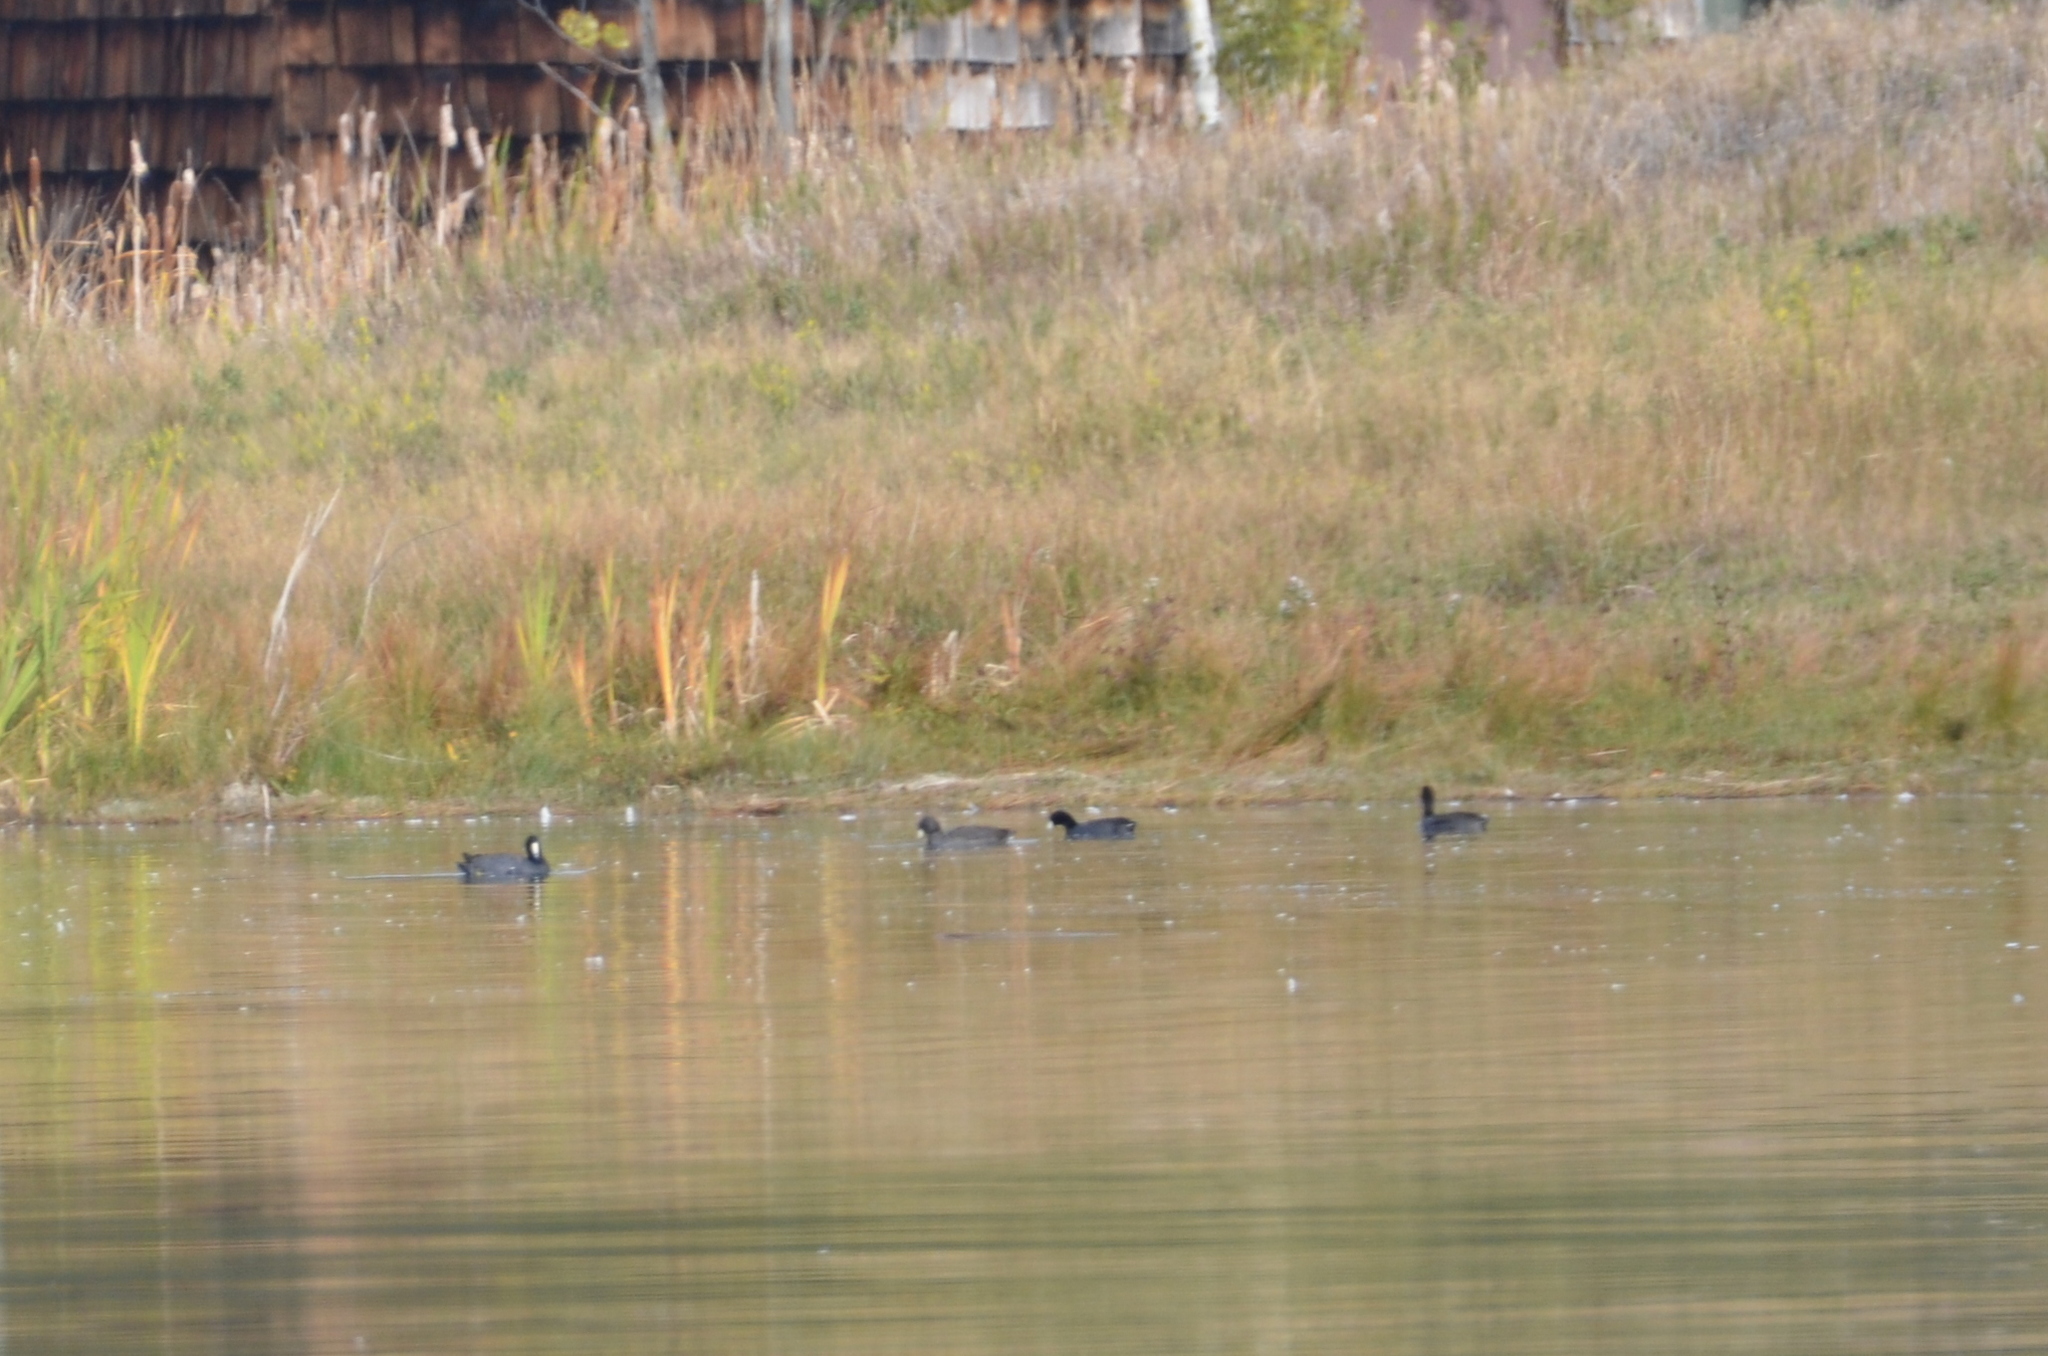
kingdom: Animalia
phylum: Chordata
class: Aves
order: Gruiformes
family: Rallidae
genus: Fulica
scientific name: Fulica americana
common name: American coot
